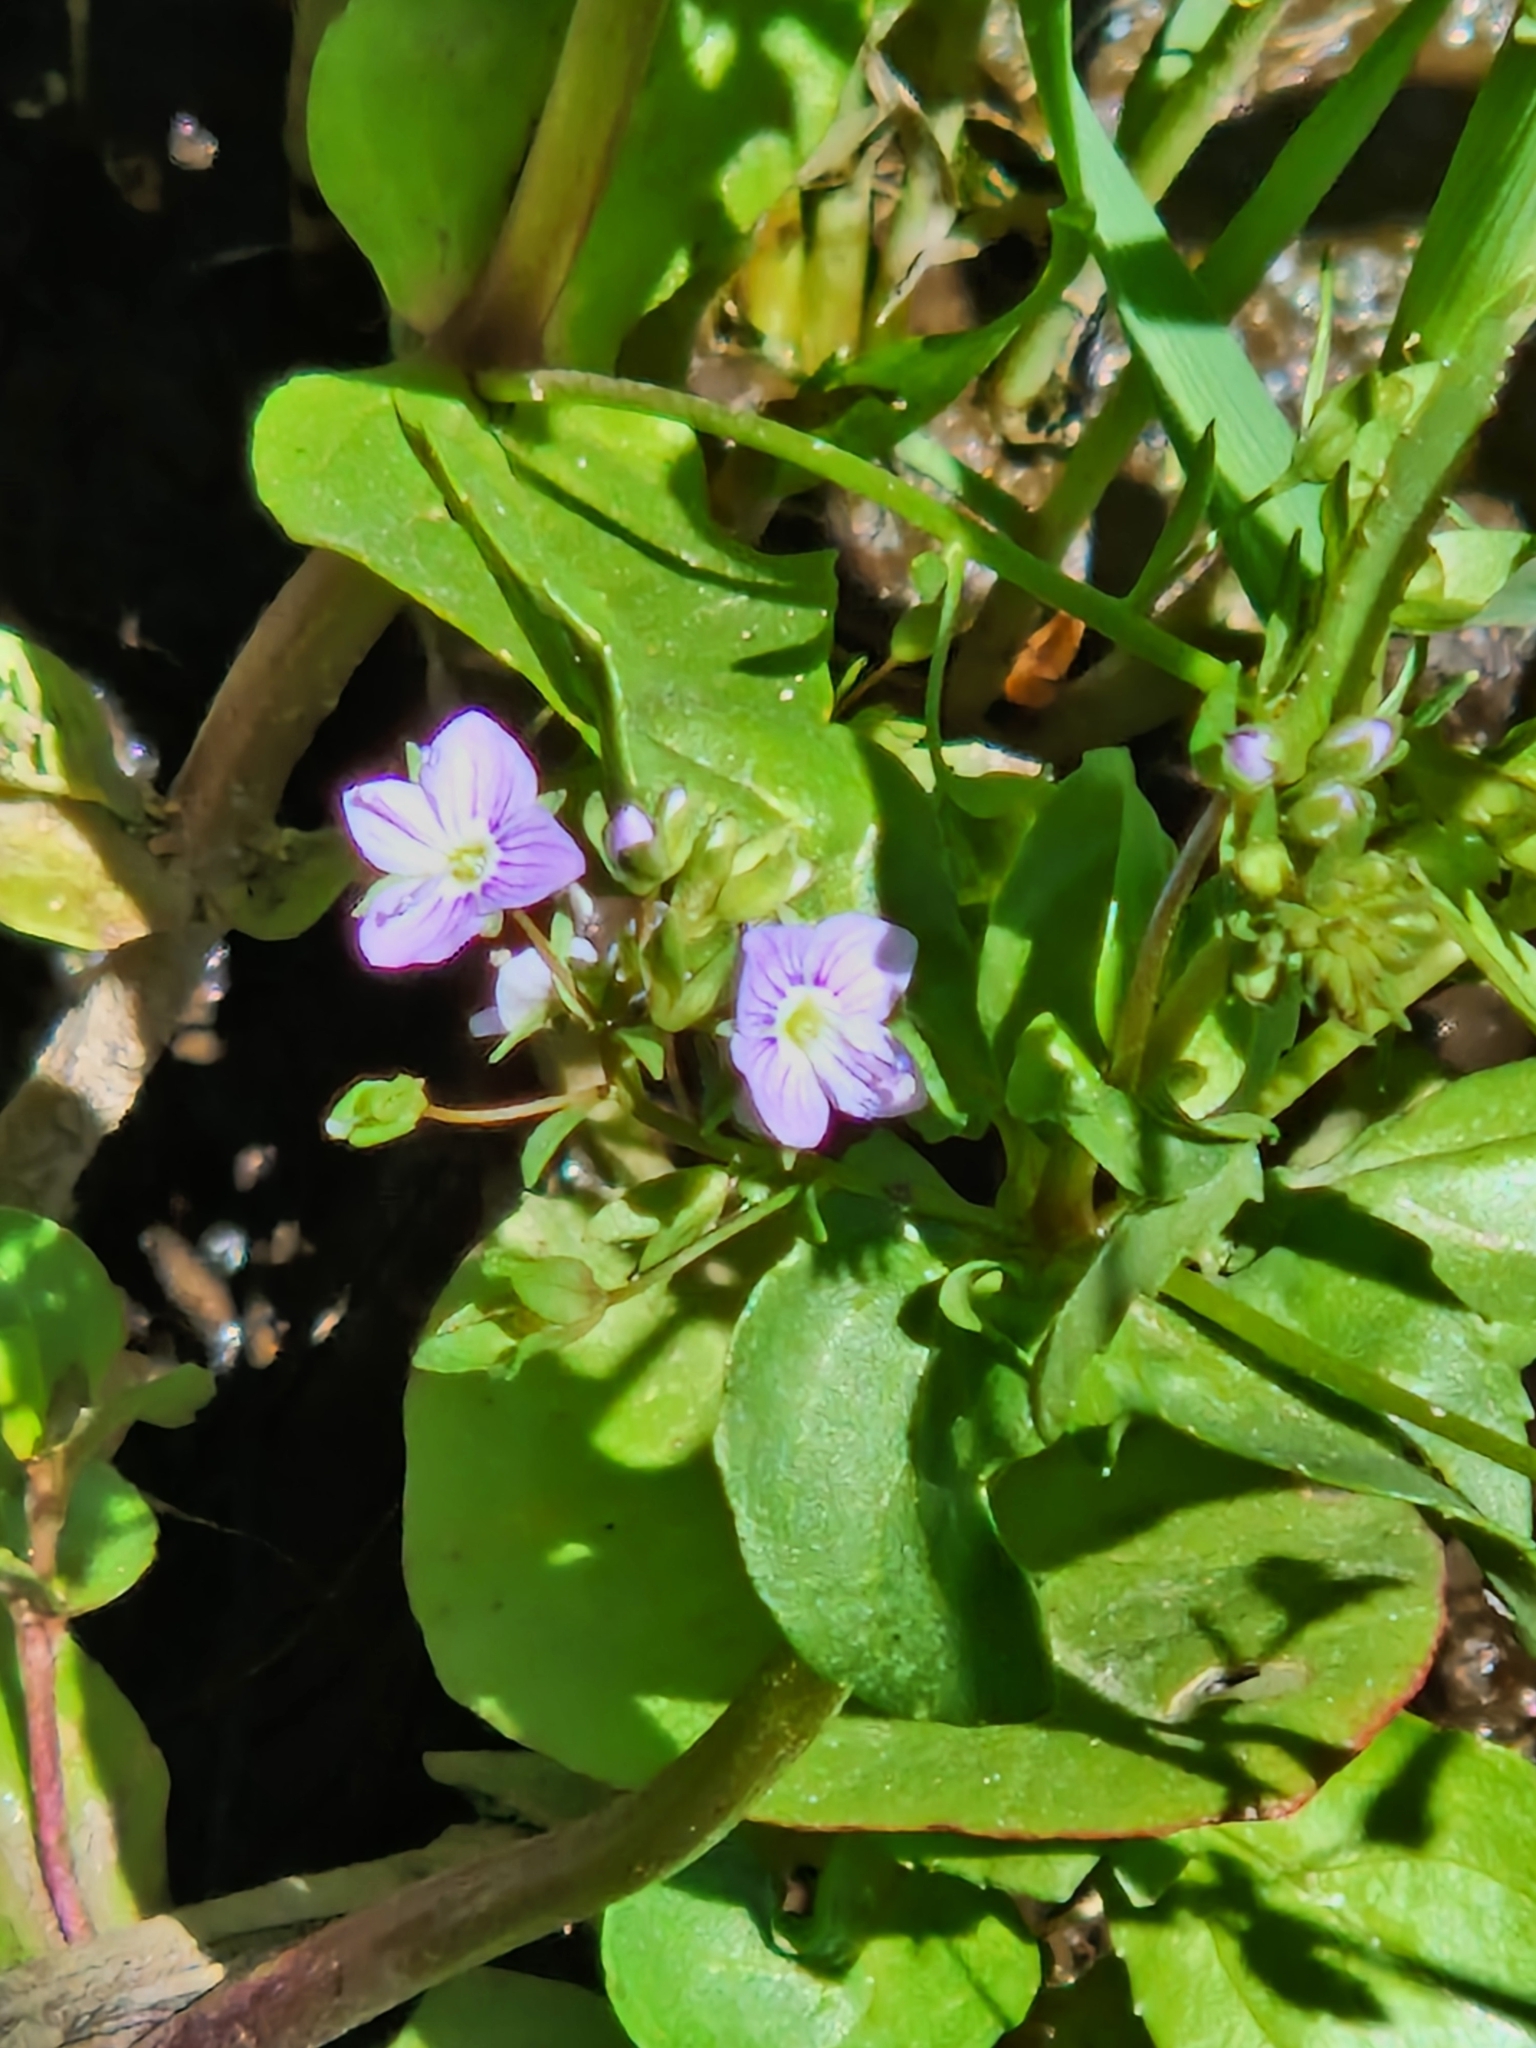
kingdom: Plantae
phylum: Tracheophyta
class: Magnoliopsida
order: Lamiales
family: Plantaginaceae
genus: Veronica
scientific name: Veronica anagallis-aquatica
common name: Water speedwell
